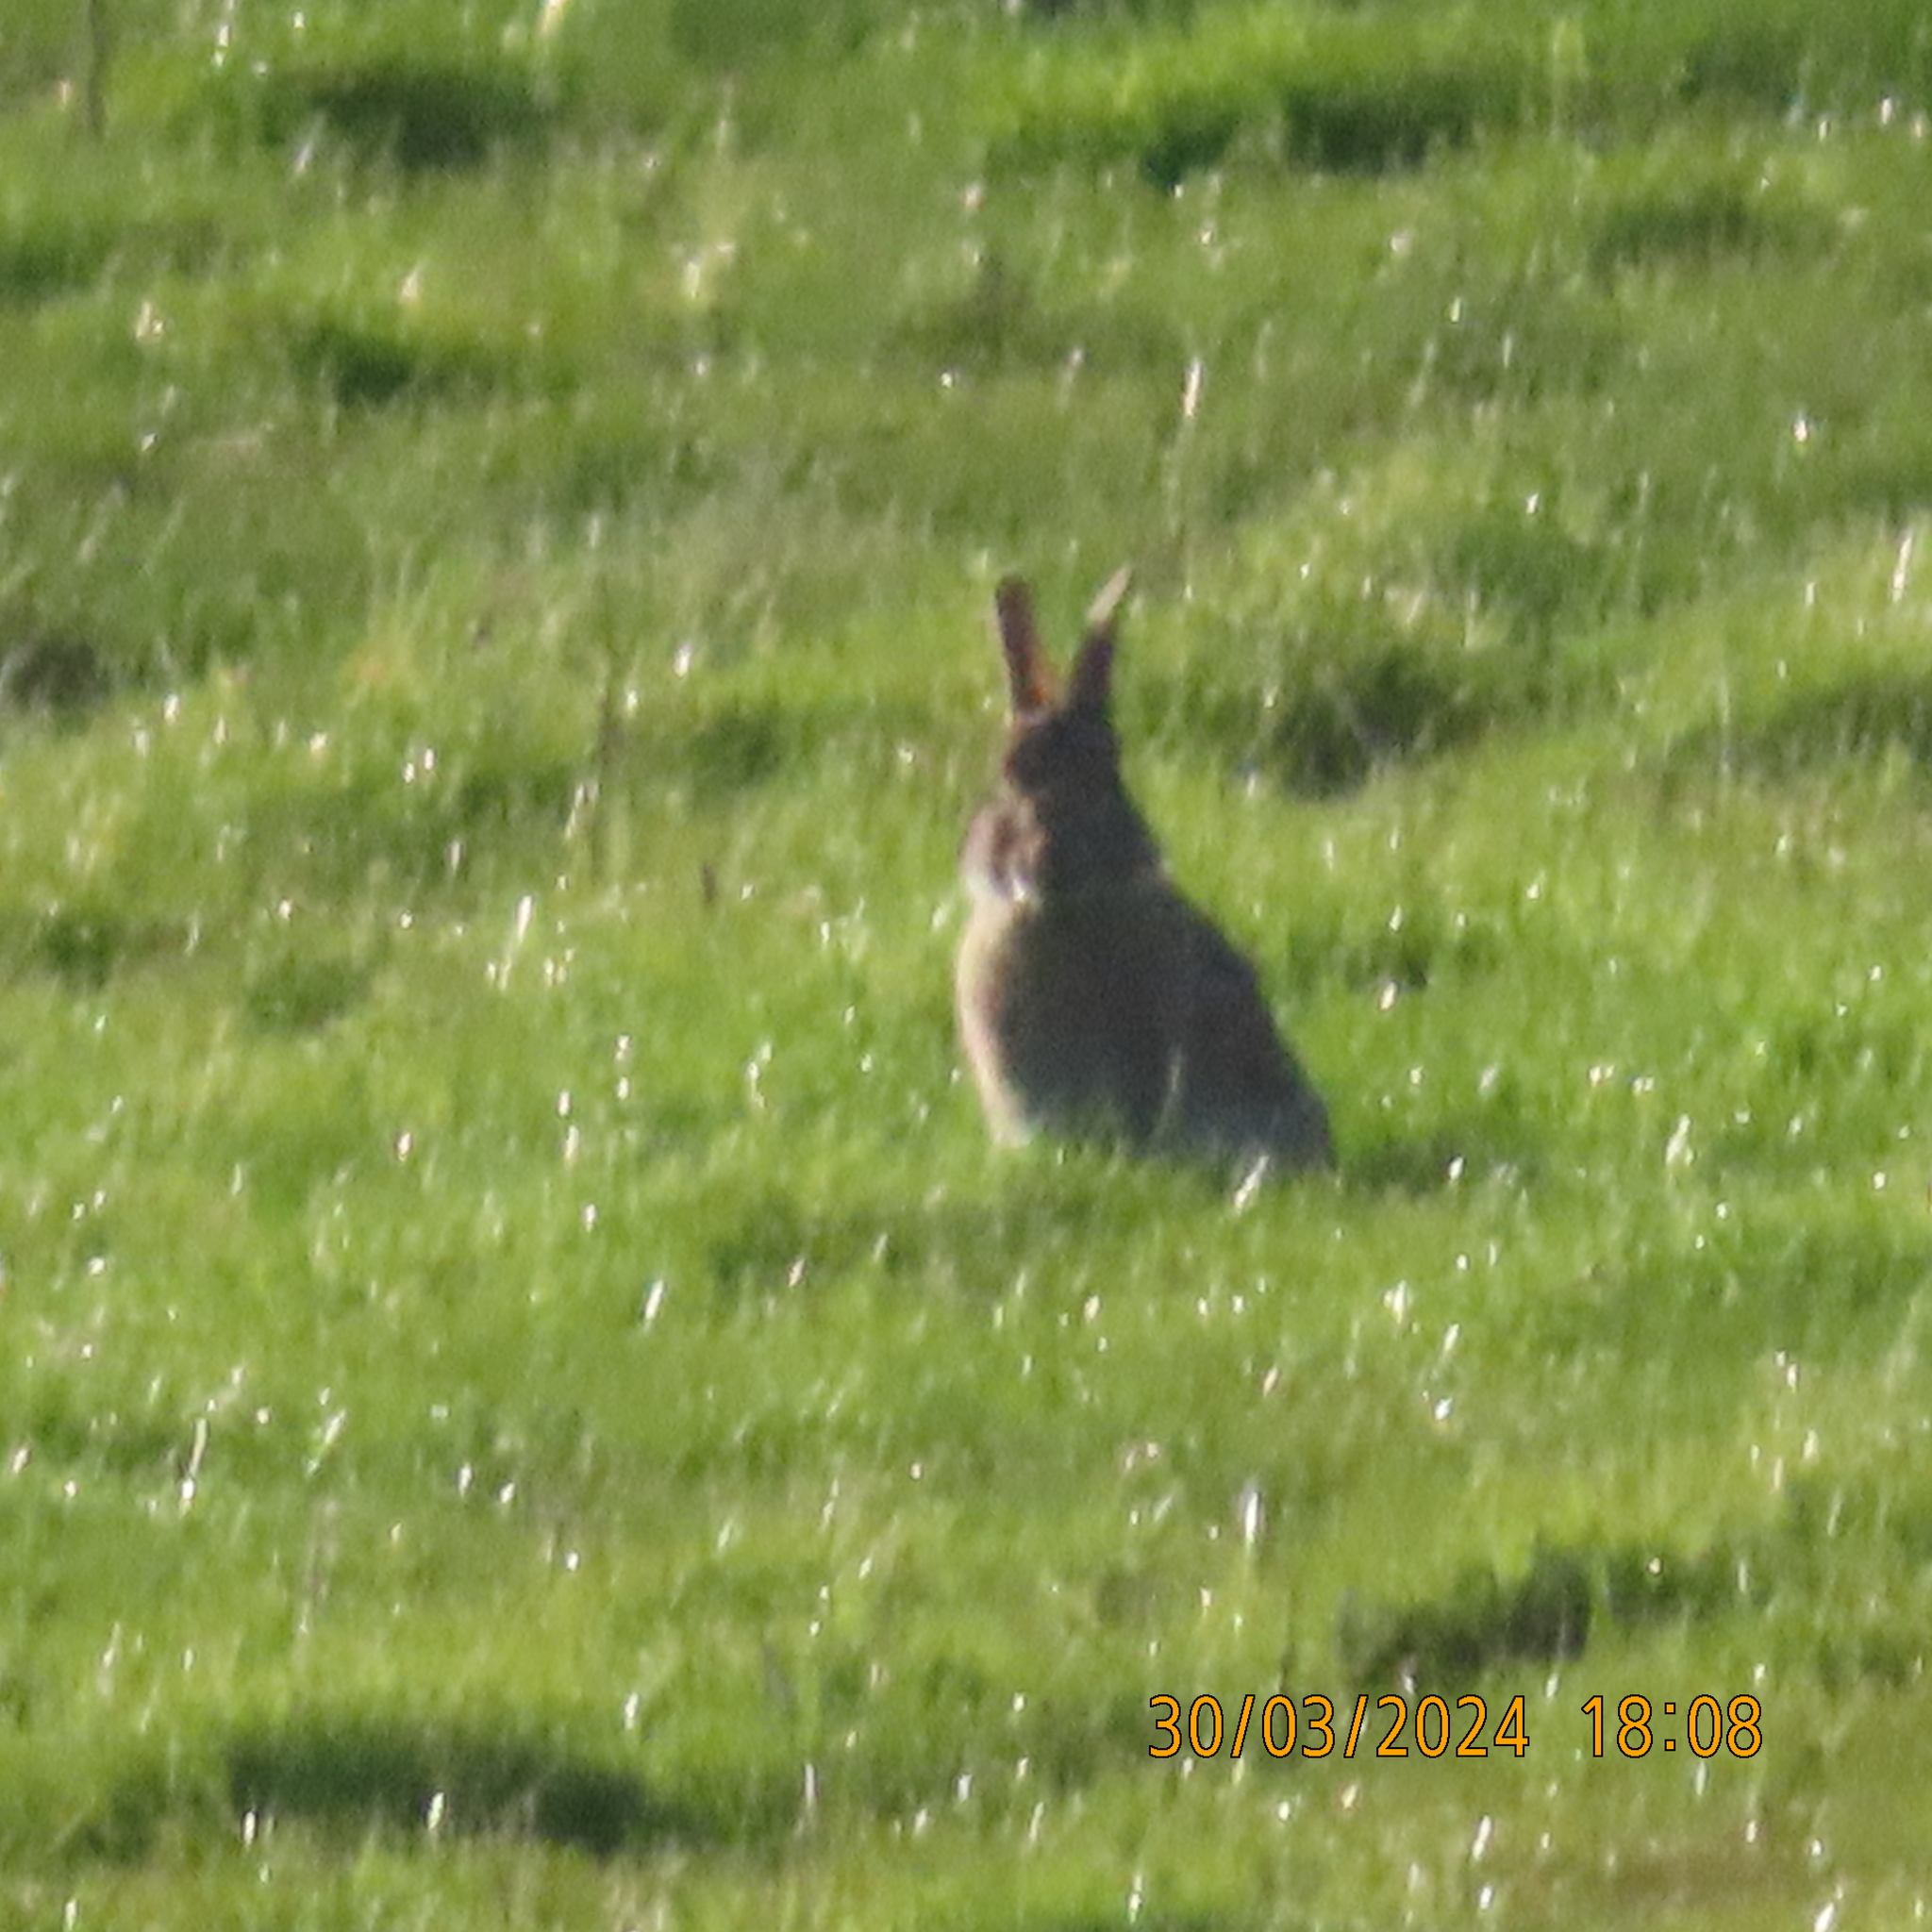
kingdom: Animalia
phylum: Chordata
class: Mammalia
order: Lagomorpha
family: Leporidae
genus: Oryctolagus
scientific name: Oryctolagus cuniculus
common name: European rabbit
